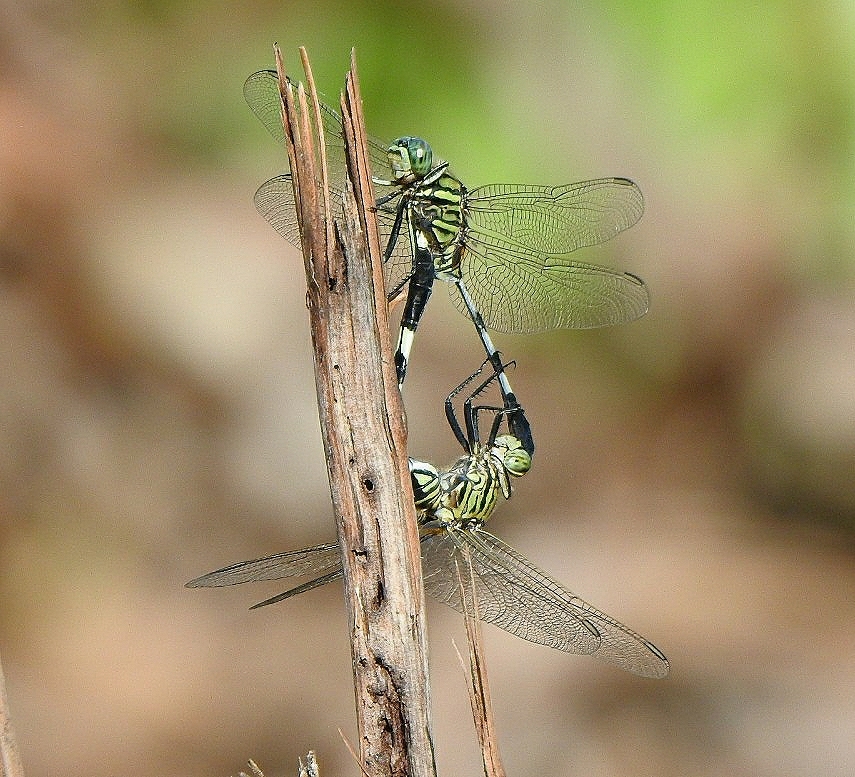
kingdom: Animalia
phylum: Arthropoda
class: Insecta
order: Odonata
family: Libellulidae
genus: Orthetrum
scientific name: Orthetrum sabina
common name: Slender skimmer
